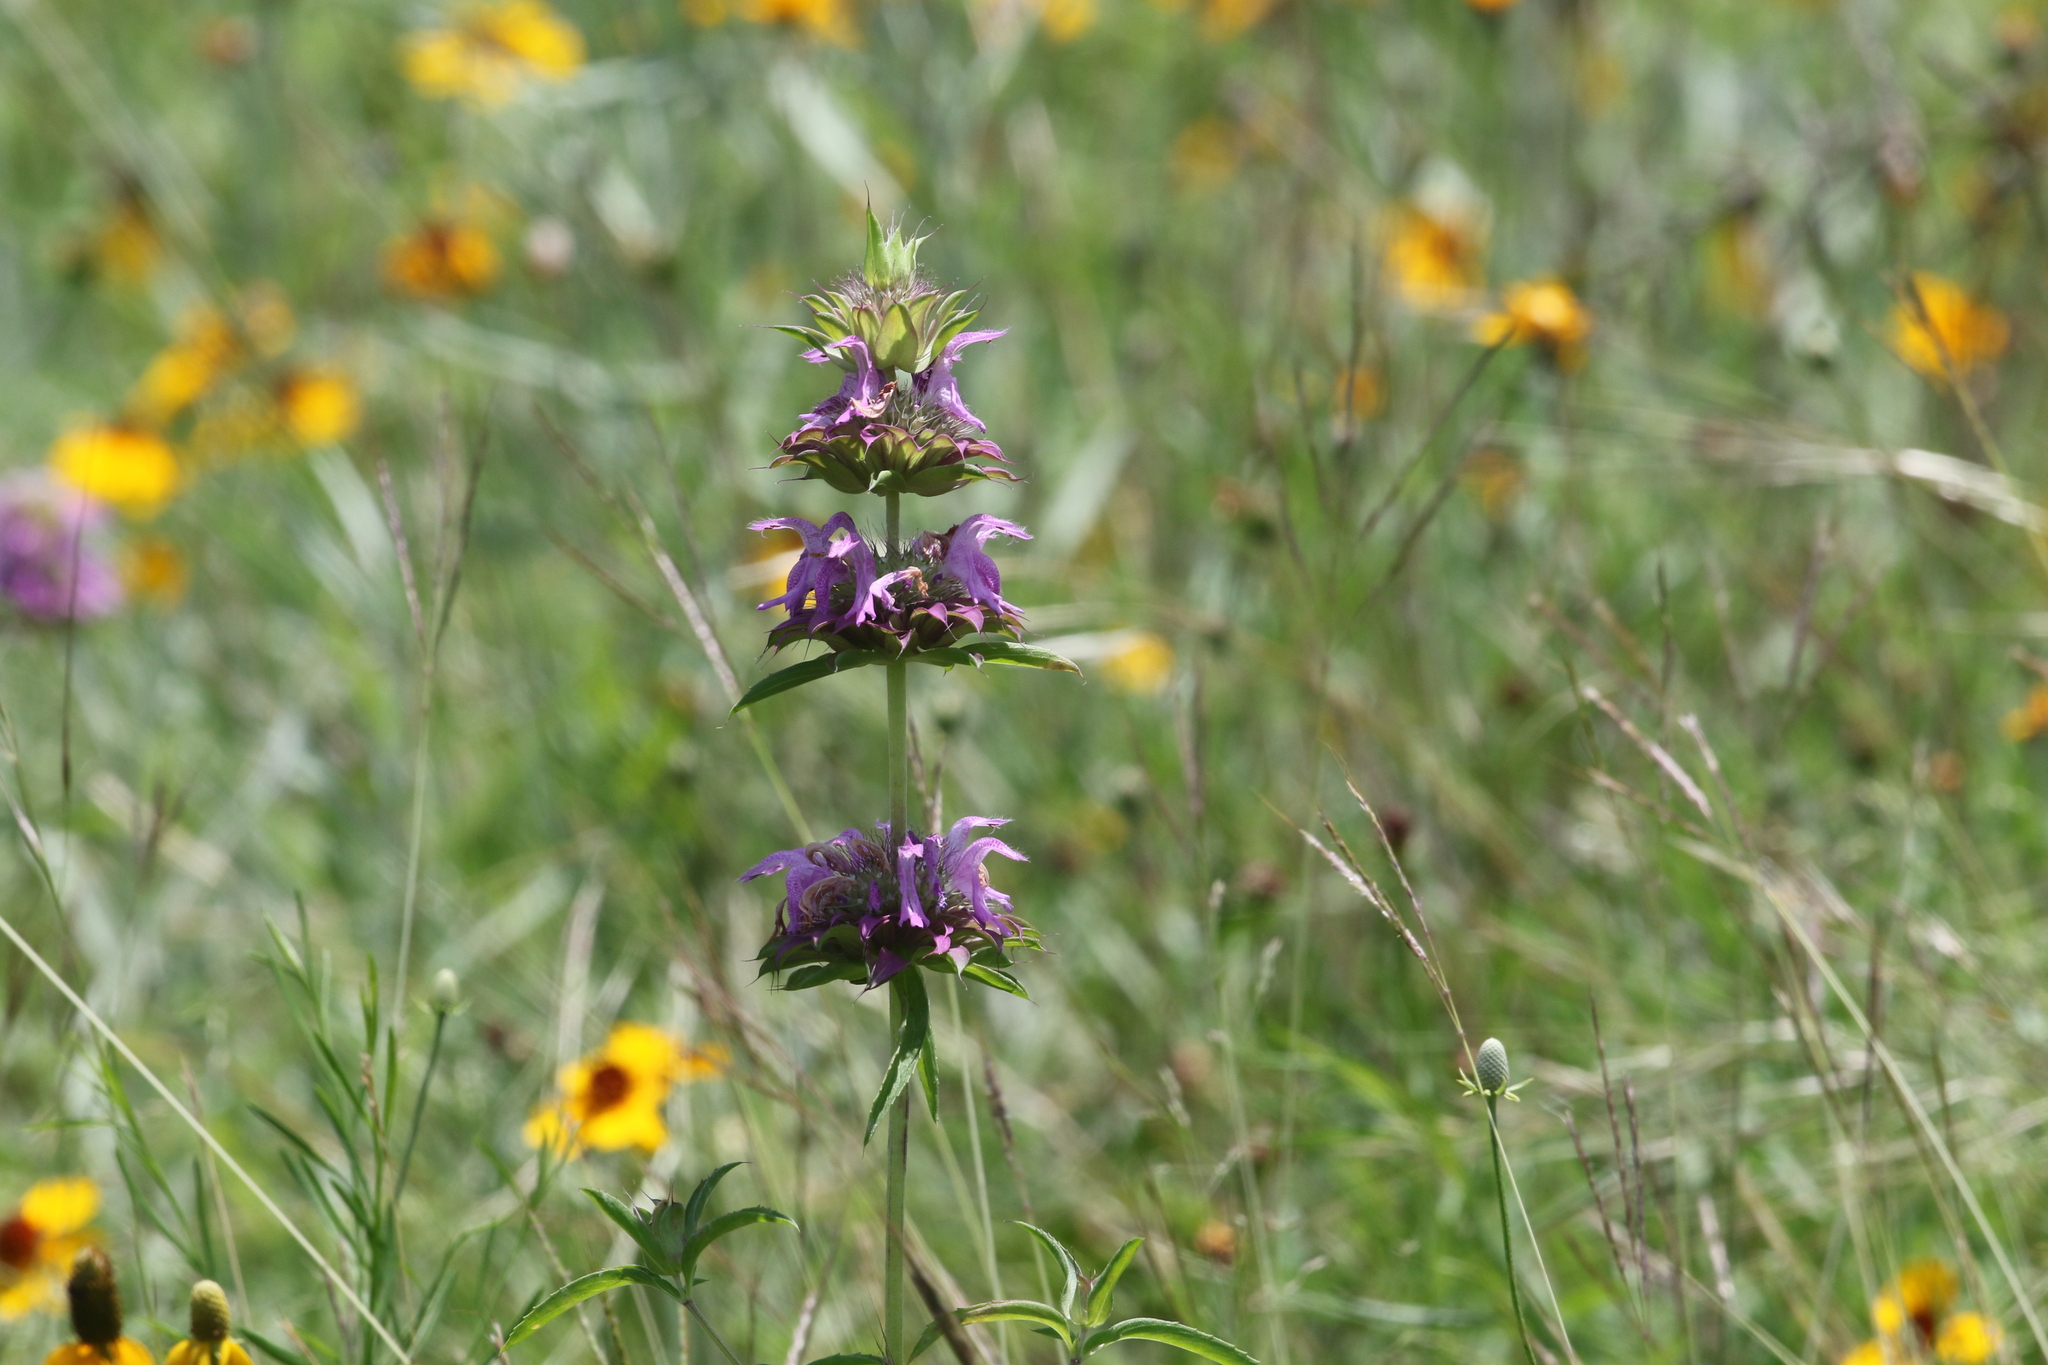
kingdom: Plantae
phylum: Tracheophyta
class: Magnoliopsida
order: Lamiales
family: Lamiaceae
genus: Monarda
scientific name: Monarda citriodora
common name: Lemon beebalm
